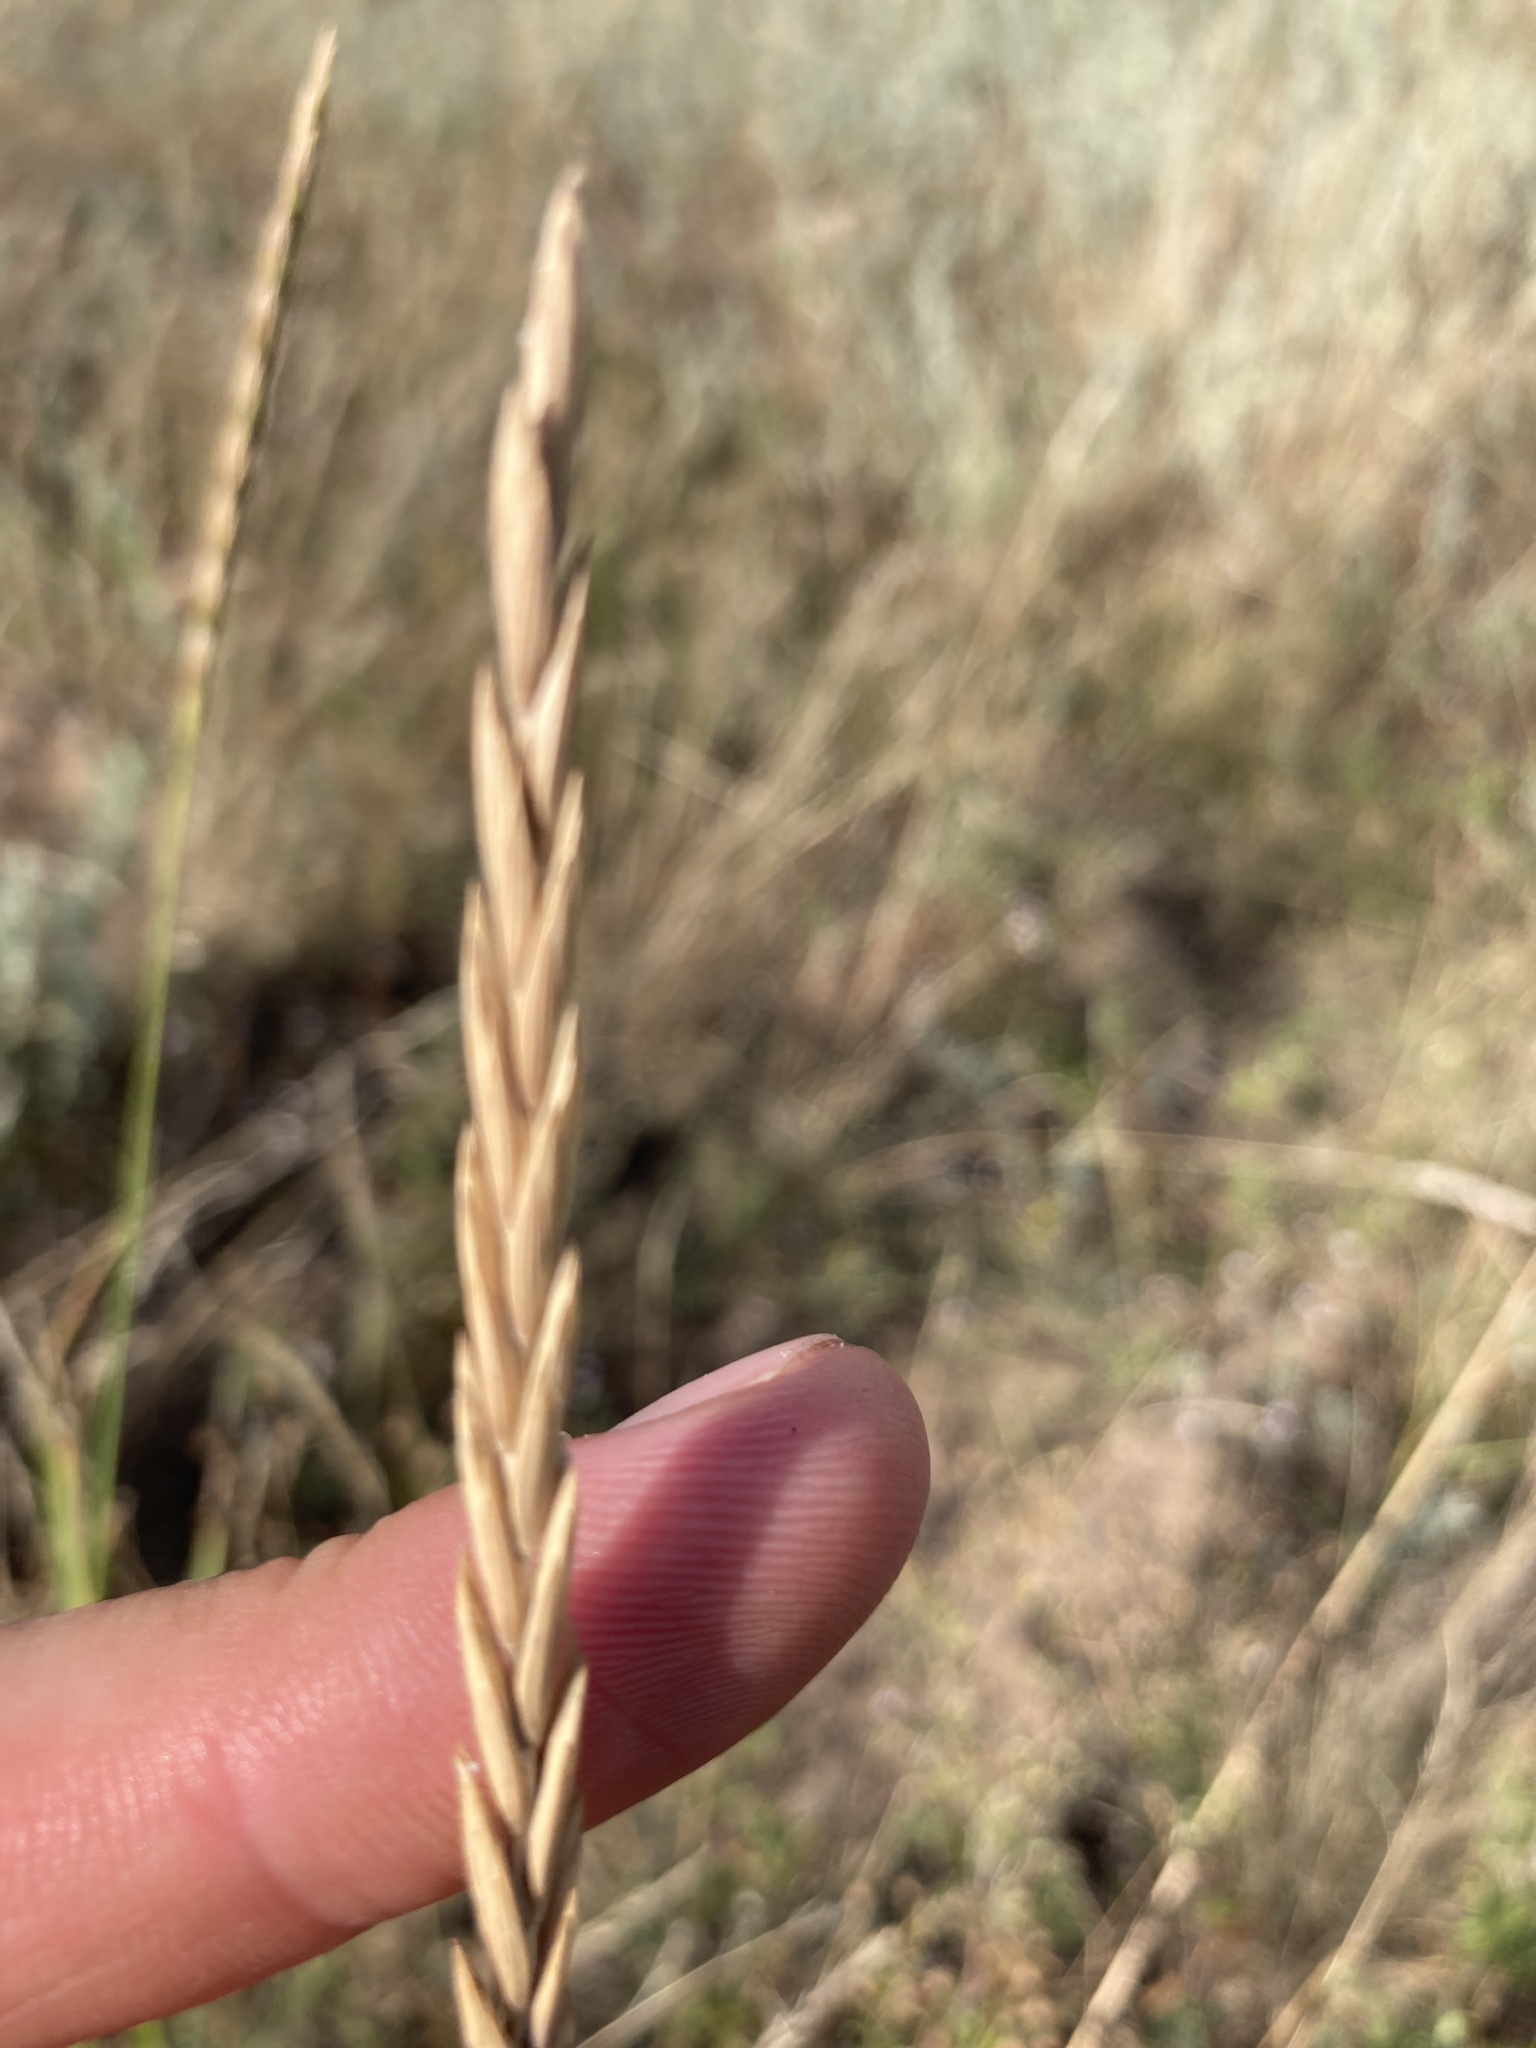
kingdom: Plantae
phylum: Tracheophyta
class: Liliopsida
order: Poales
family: Poaceae
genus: Elymus
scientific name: Elymus repens
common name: Quackgrass
